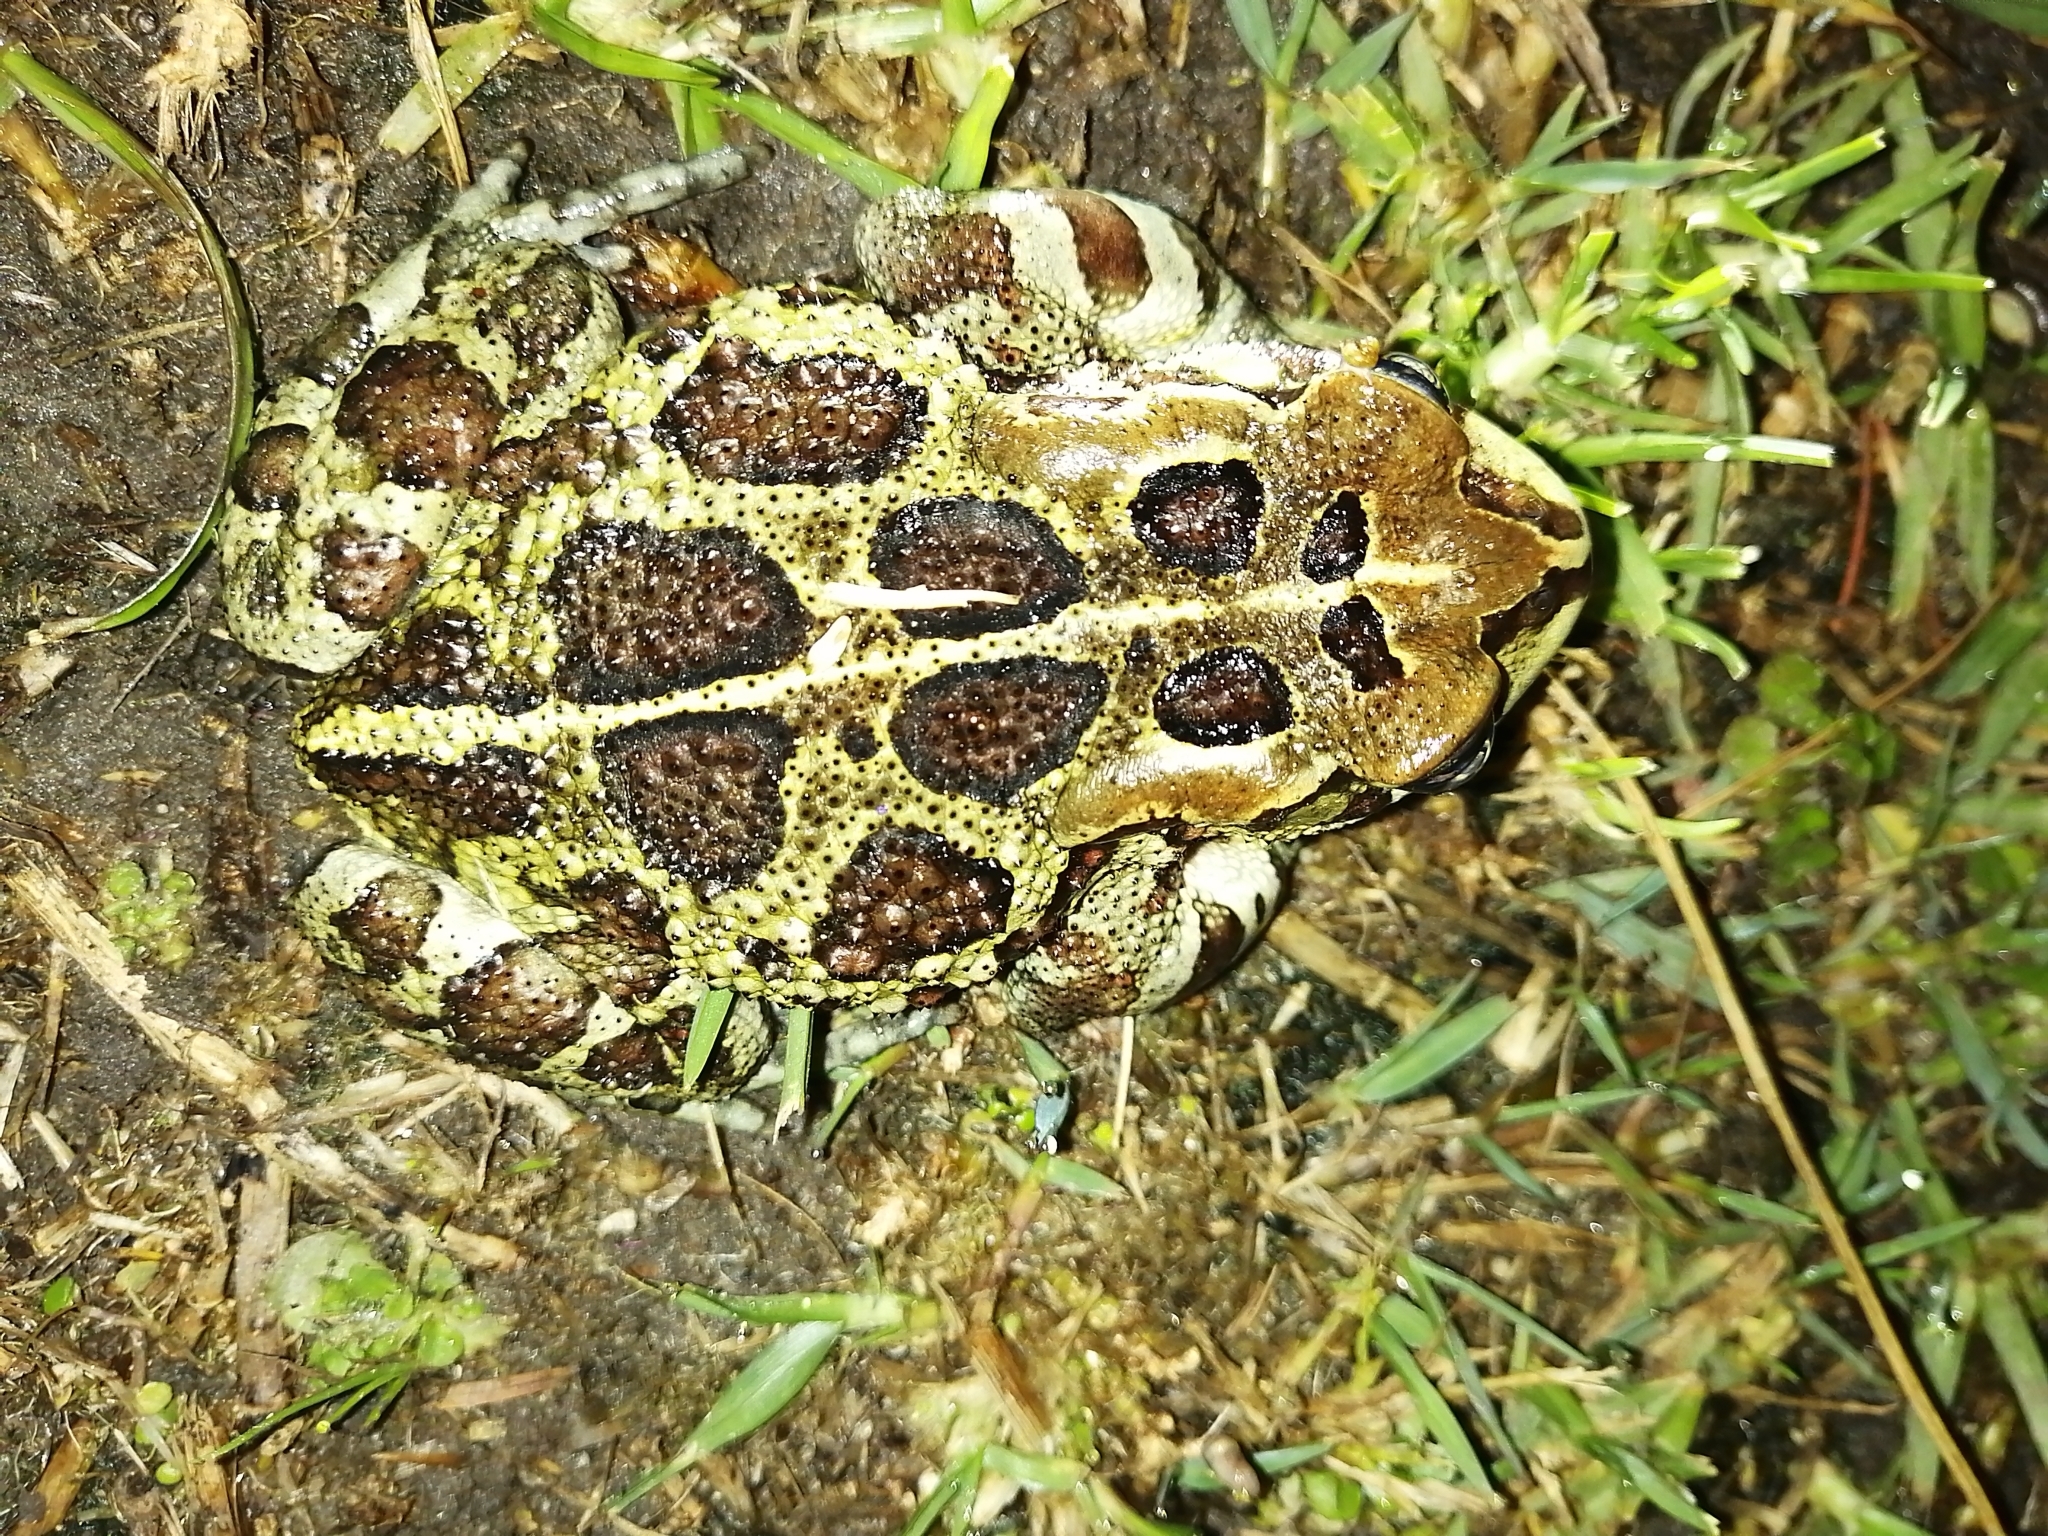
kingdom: Animalia
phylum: Chordata
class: Amphibia
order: Anura
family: Bufonidae
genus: Sclerophrys
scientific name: Sclerophrys pantherina
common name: Panther toad
